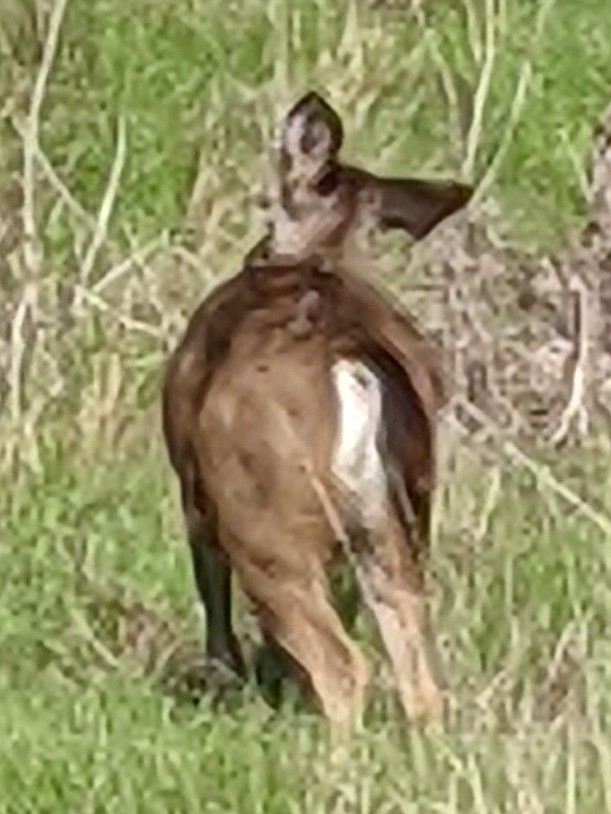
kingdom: Animalia
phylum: Chordata
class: Mammalia
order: Artiodactyla
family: Cervidae
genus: Odocoileus
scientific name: Odocoileus hemionus
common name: Mule deer
